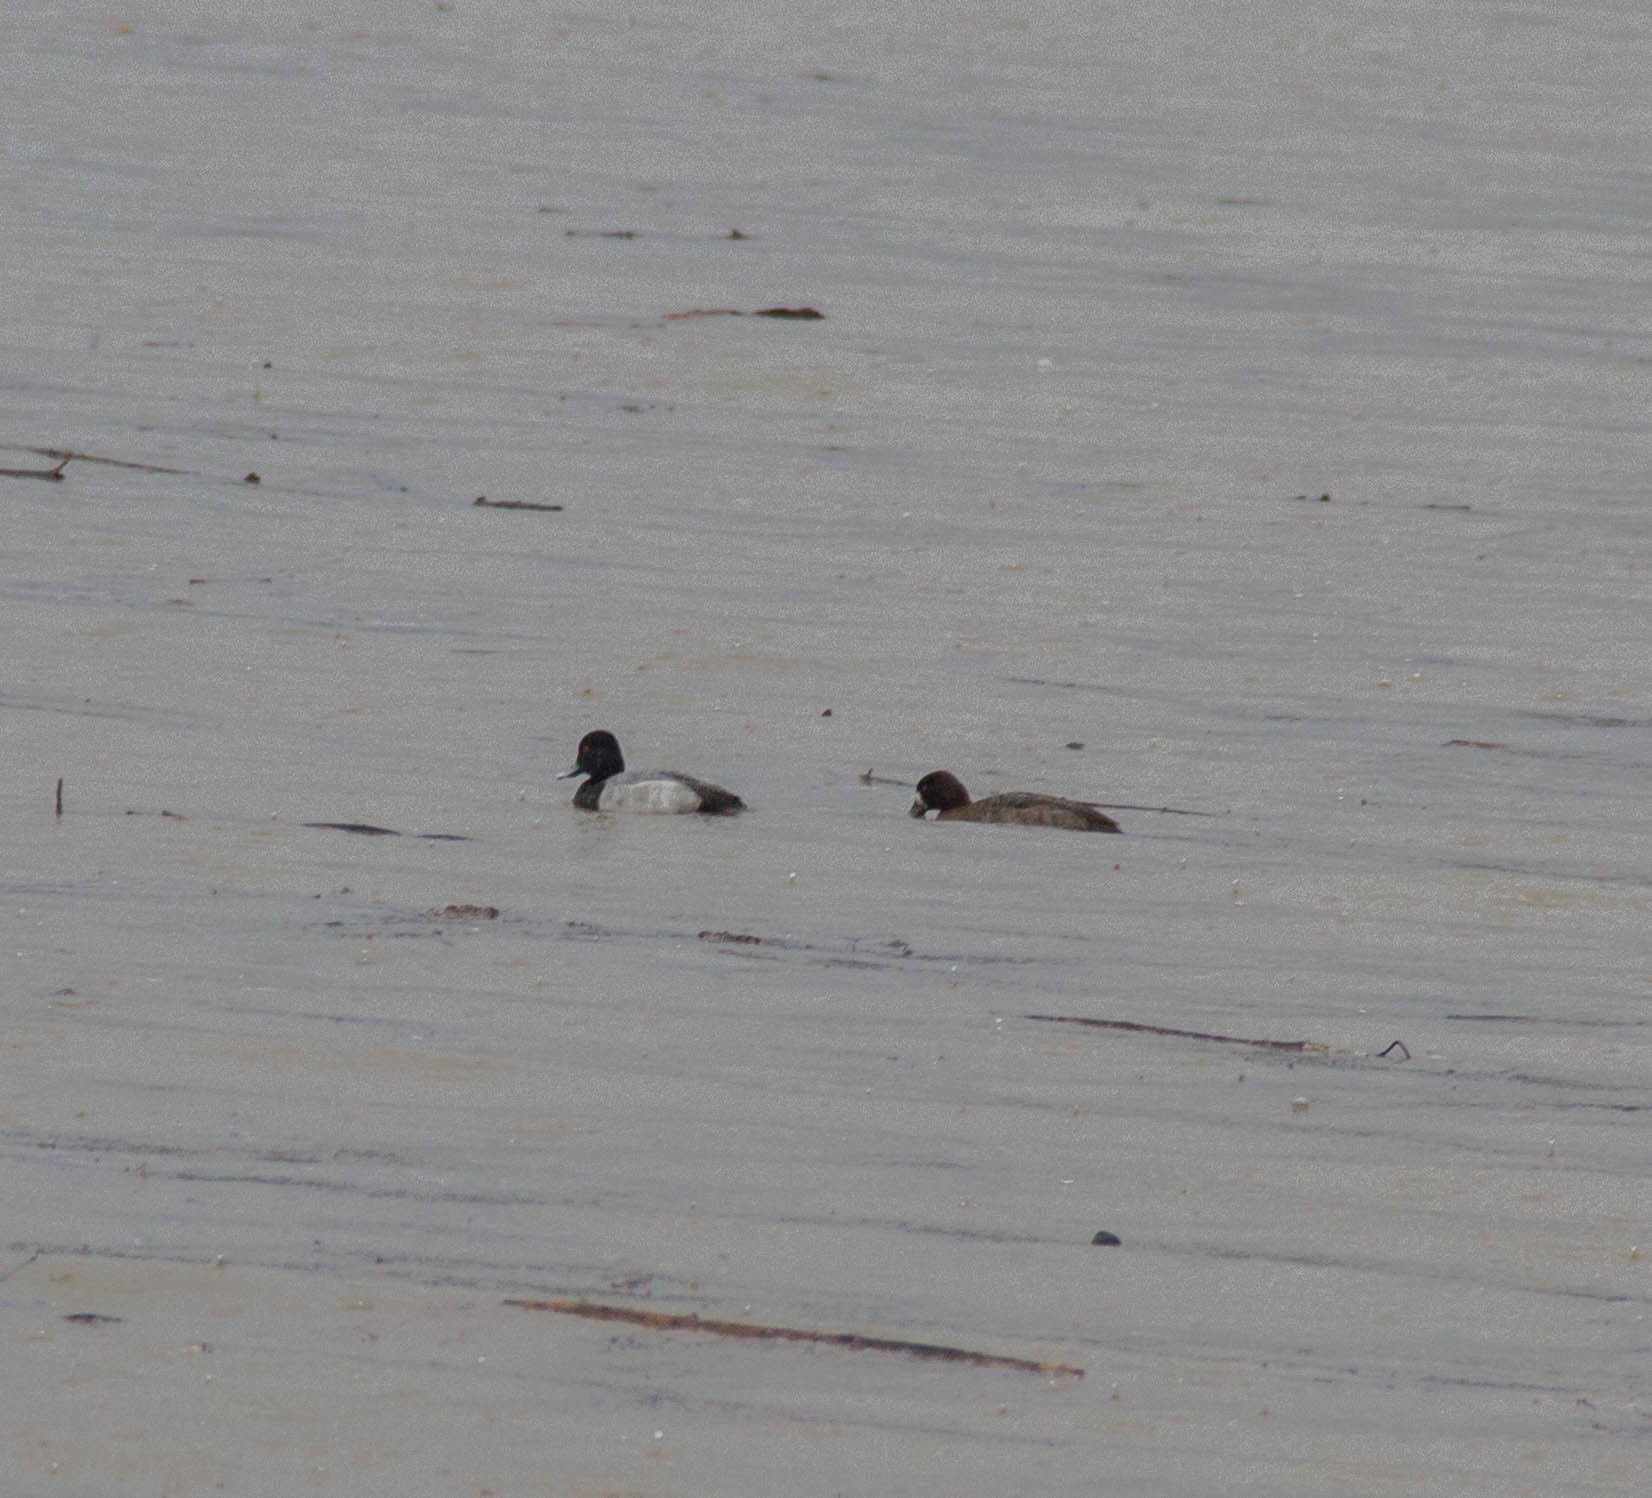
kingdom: Animalia
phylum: Chordata
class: Aves
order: Anseriformes
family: Anatidae
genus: Aythya
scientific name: Aythya affinis
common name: Lesser scaup
